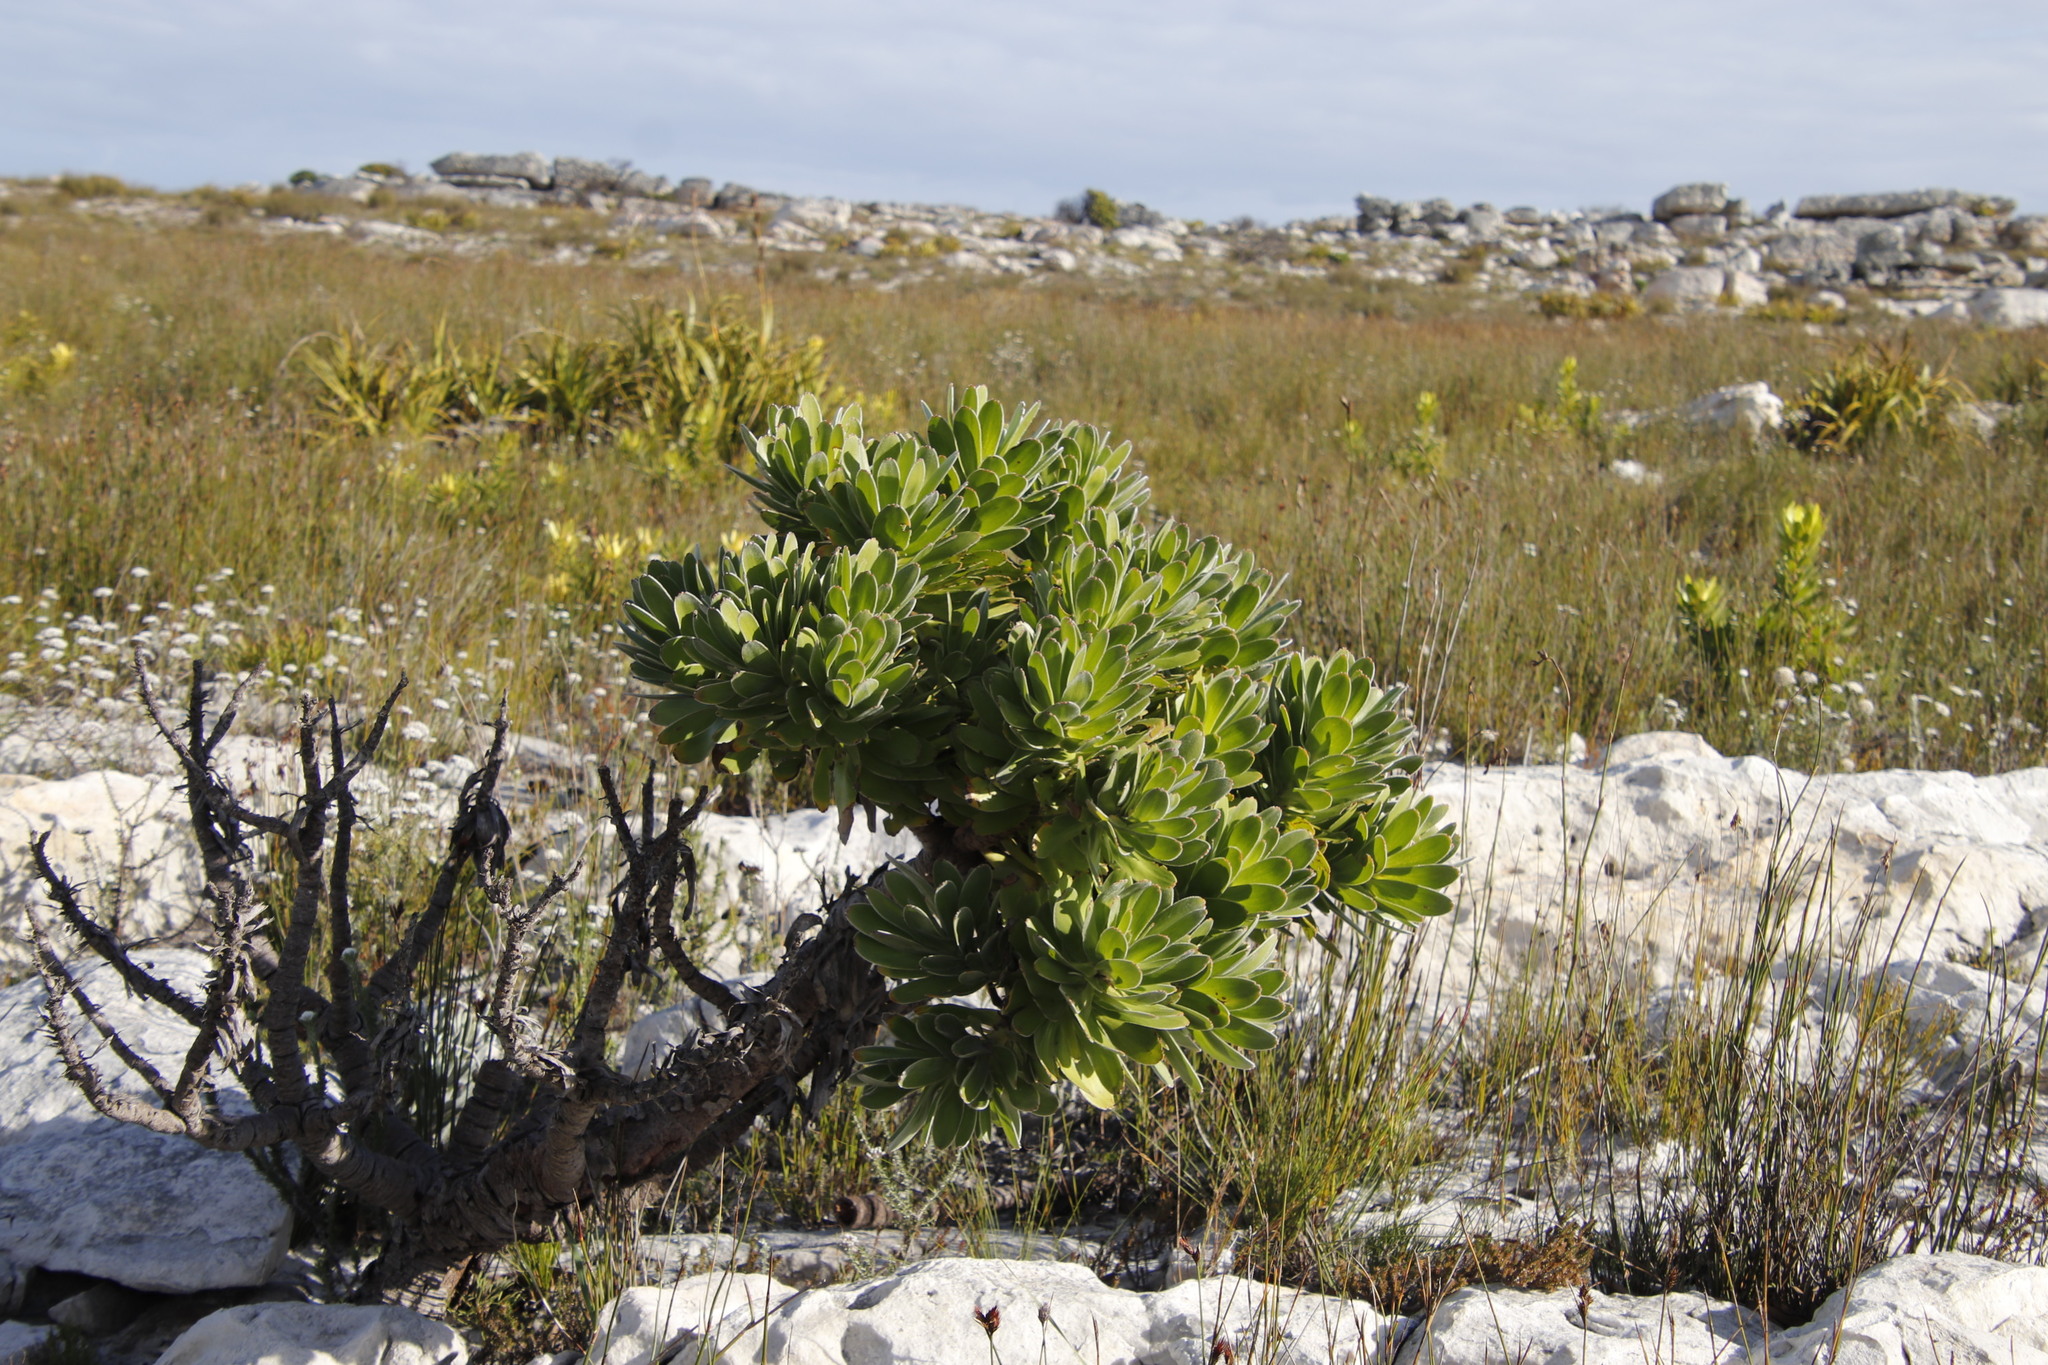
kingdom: Plantae
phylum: Tracheophyta
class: Magnoliopsida
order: Proteales
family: Proteaceae
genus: Mimetes
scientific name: Mimetes fimbriifolius
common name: Fringed bottlebrush
